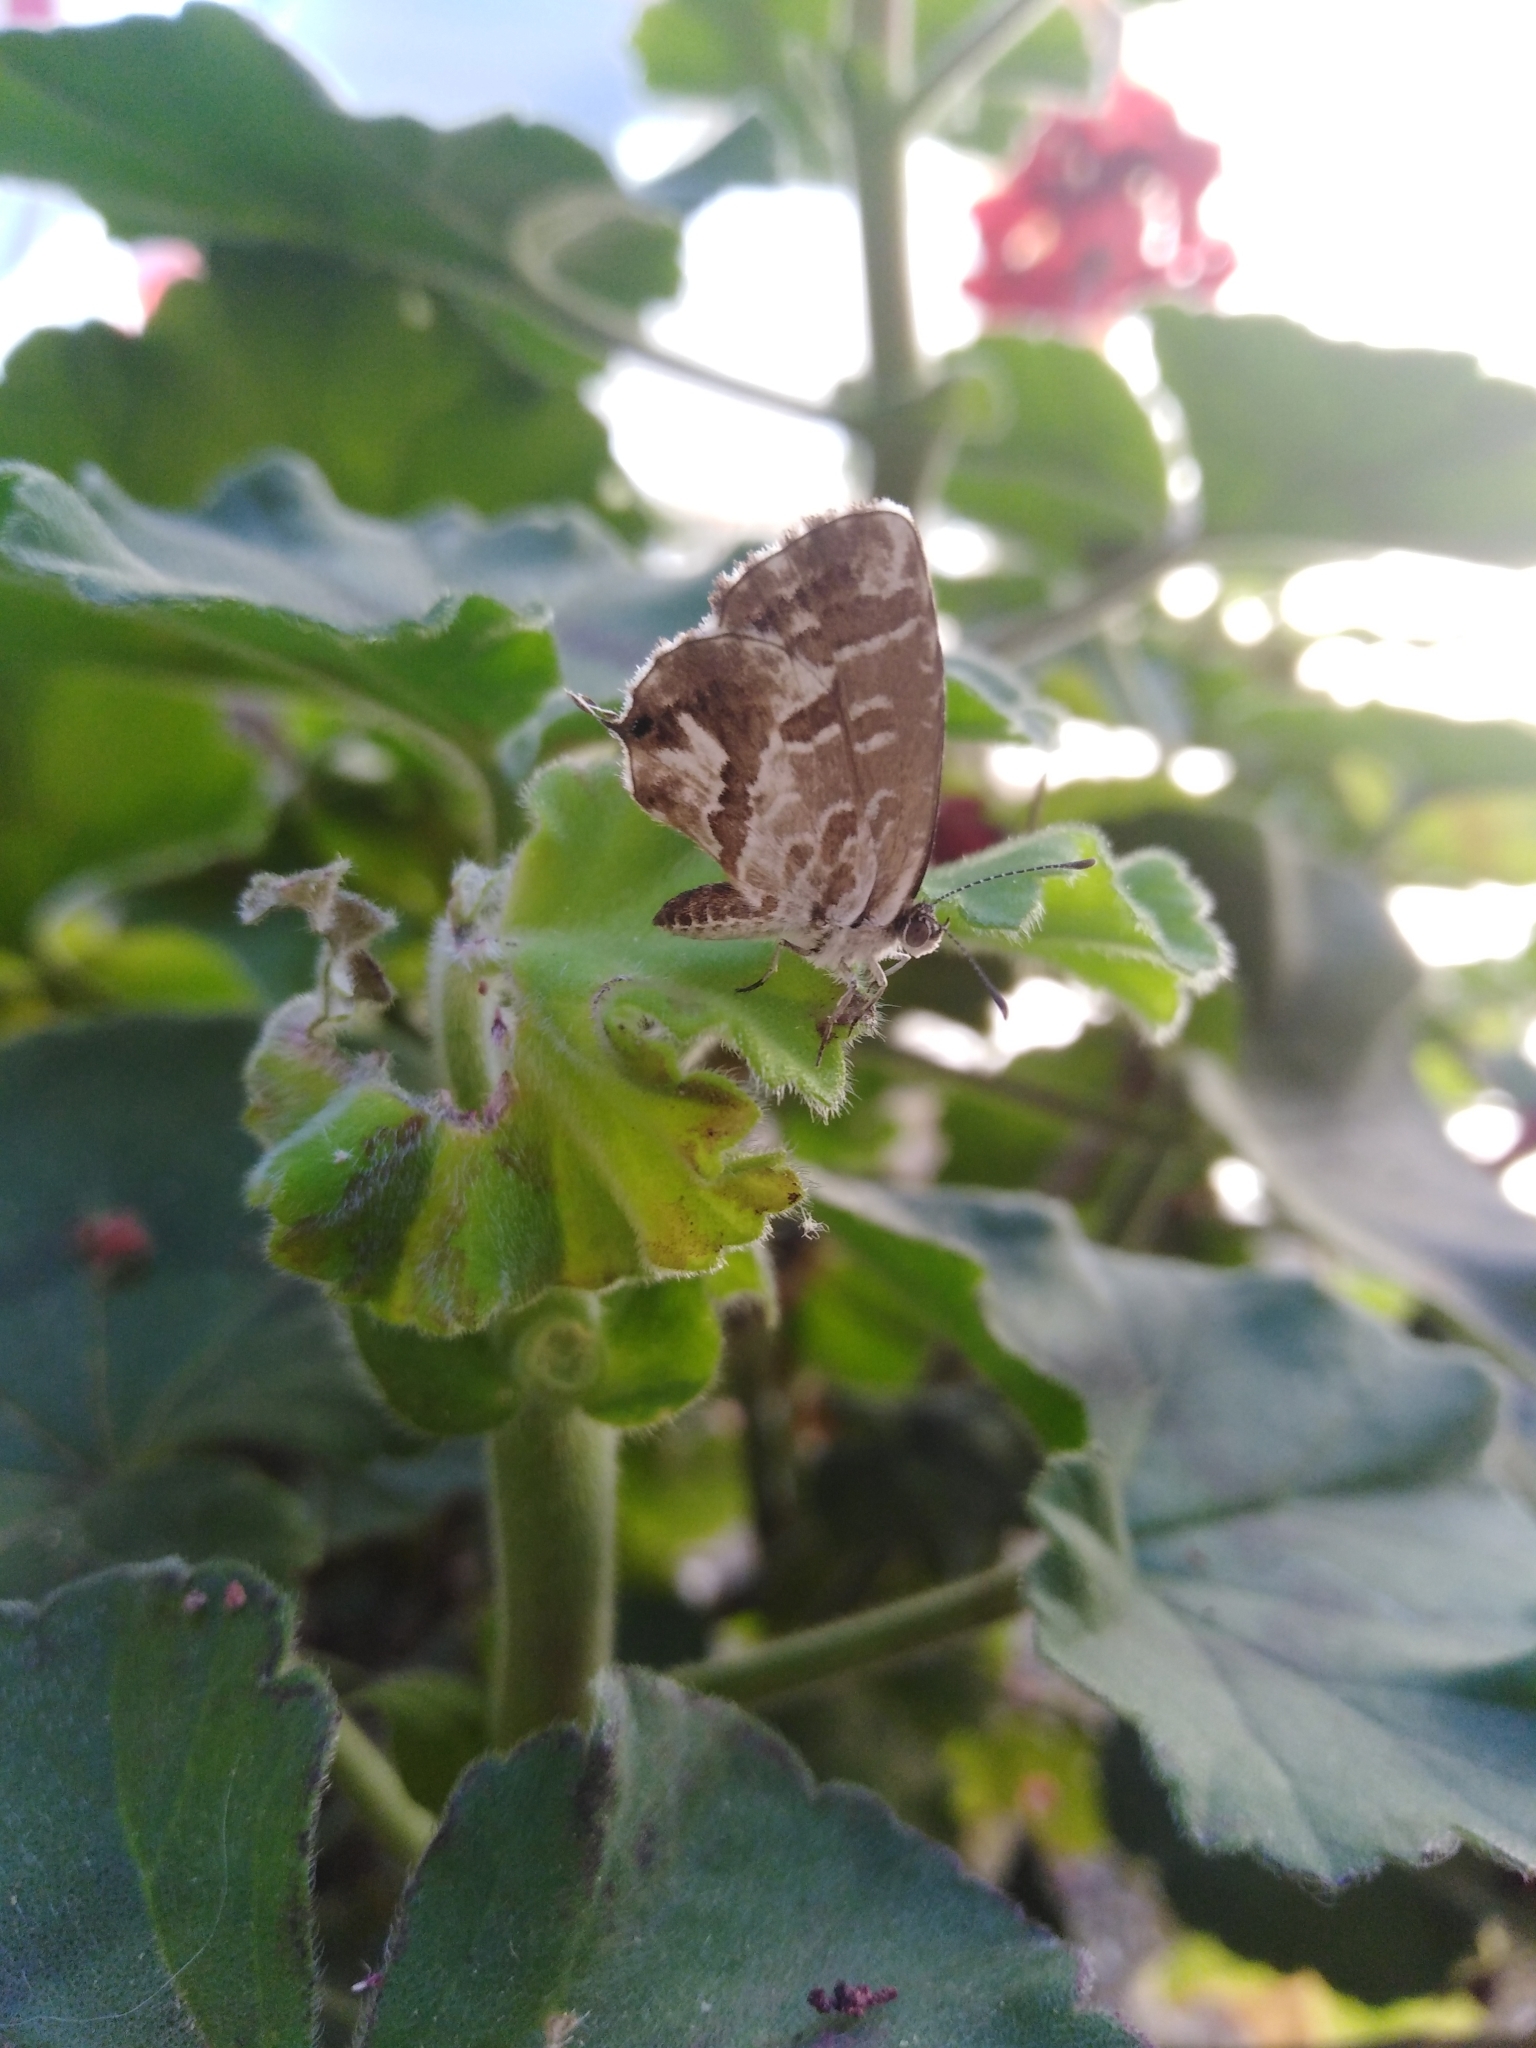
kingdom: Animalia
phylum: Arthropoda
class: Insecta
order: Lepidoptera
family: Lycaenidae
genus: Cacyreus
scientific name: Cacyreus marshalli
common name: Geranium bronze
